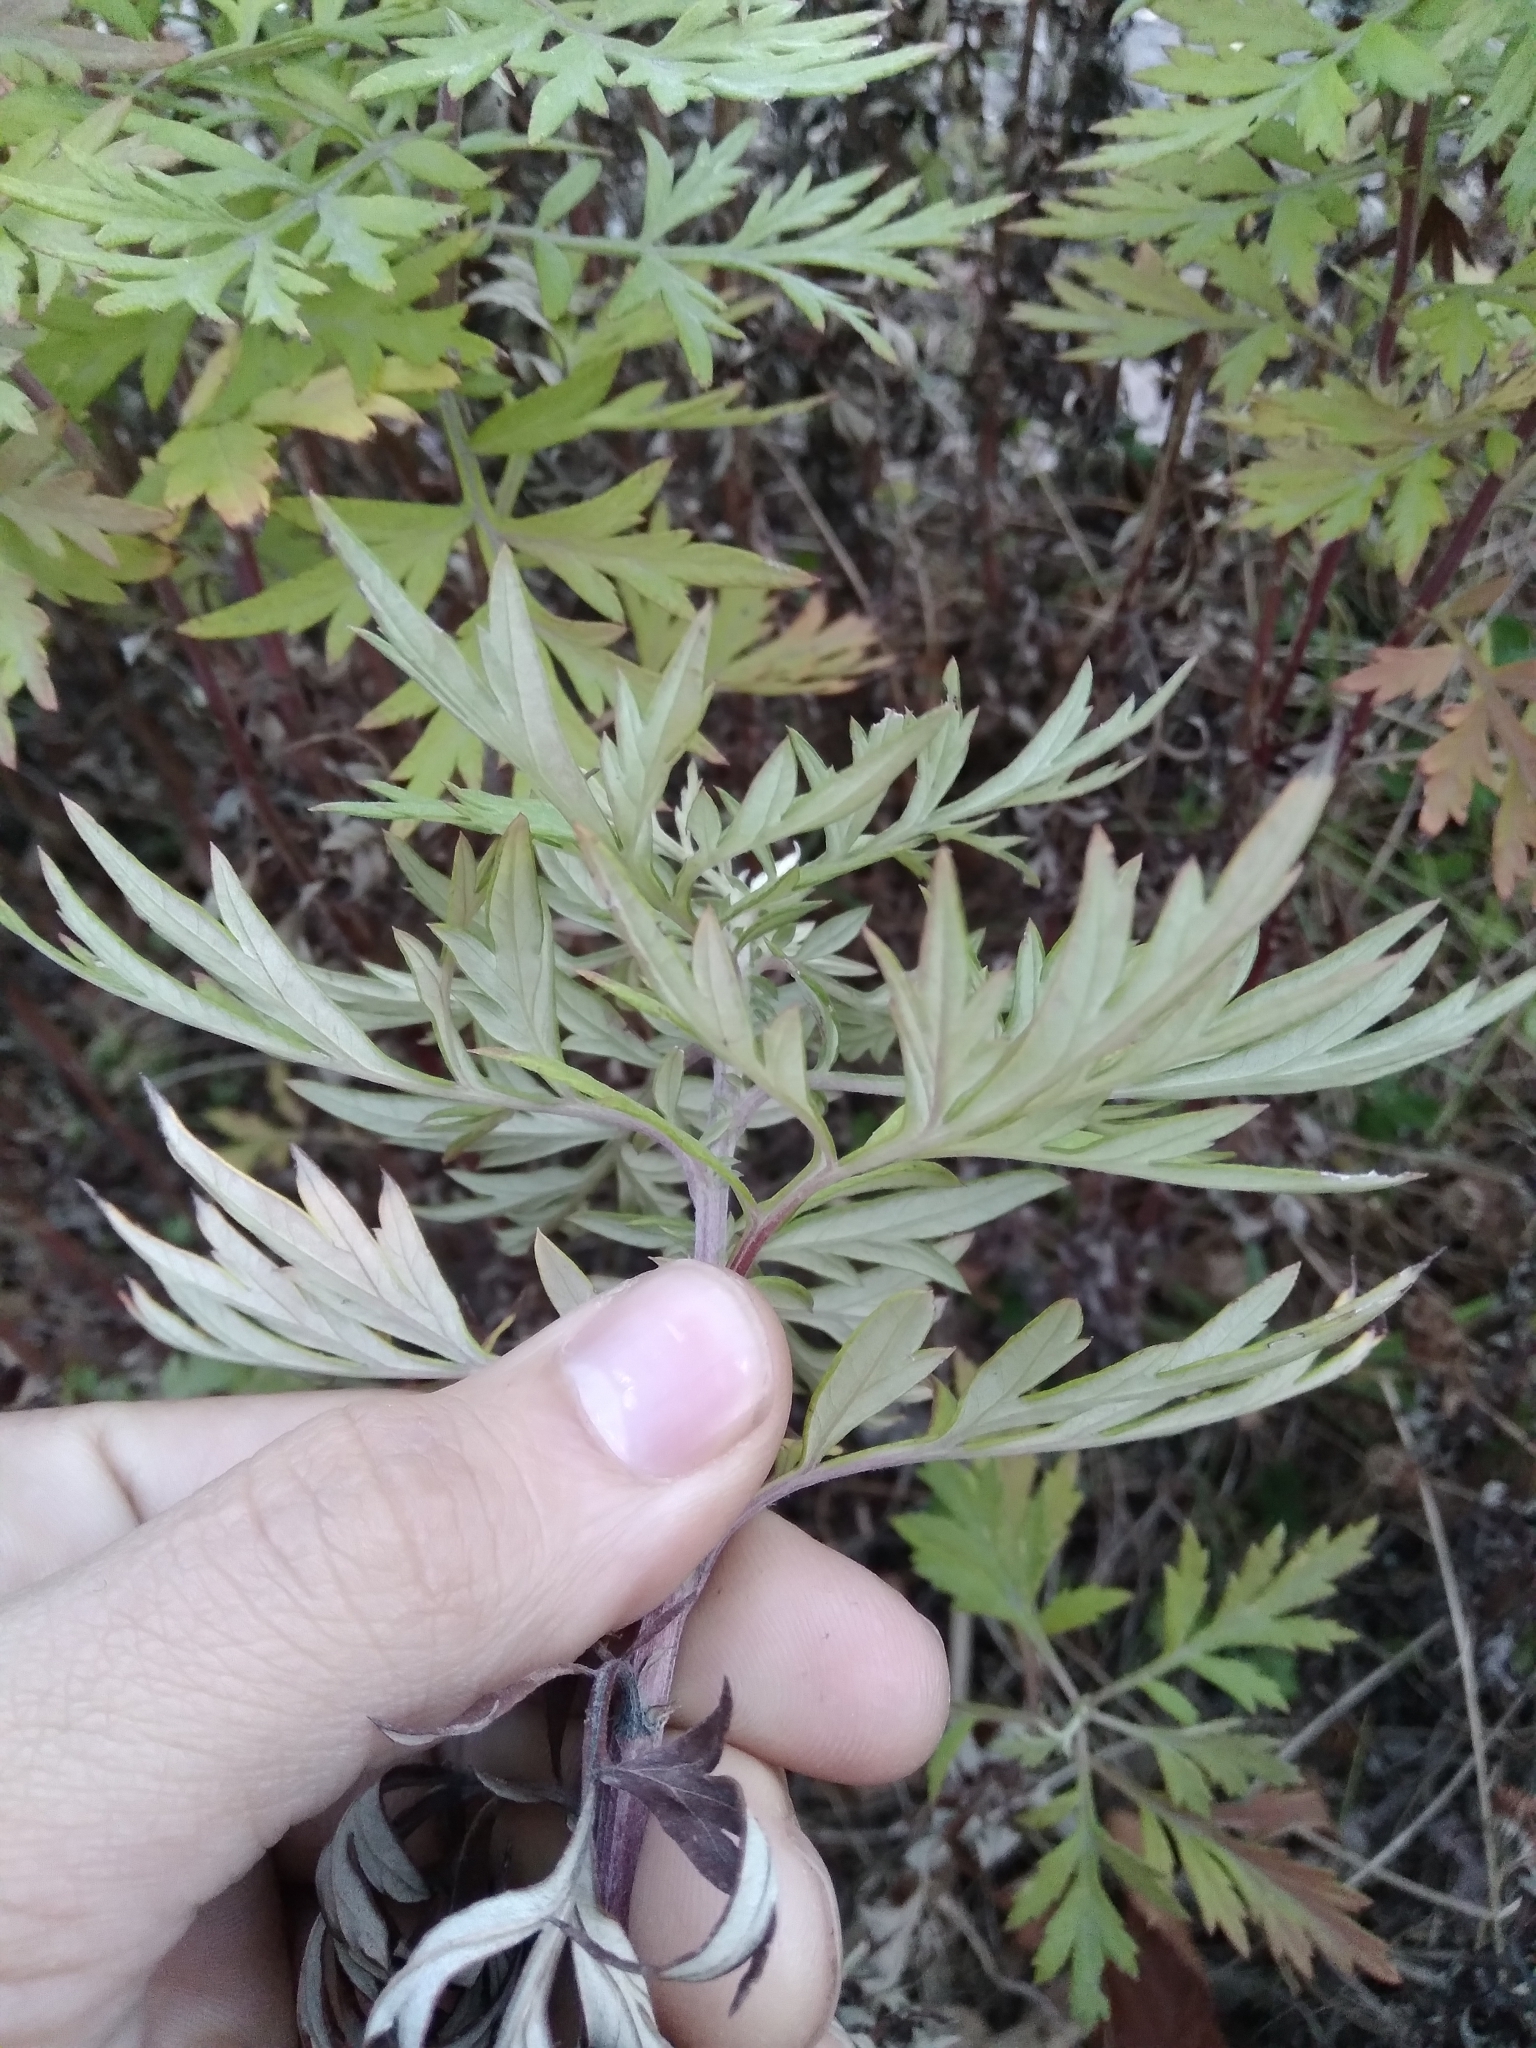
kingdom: Plantae
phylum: Tracheophyta
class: Magnoliopsida
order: Asterales
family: Asteraceae
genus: Artemisia
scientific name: Artemisia vulgaris
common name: Mugwort
